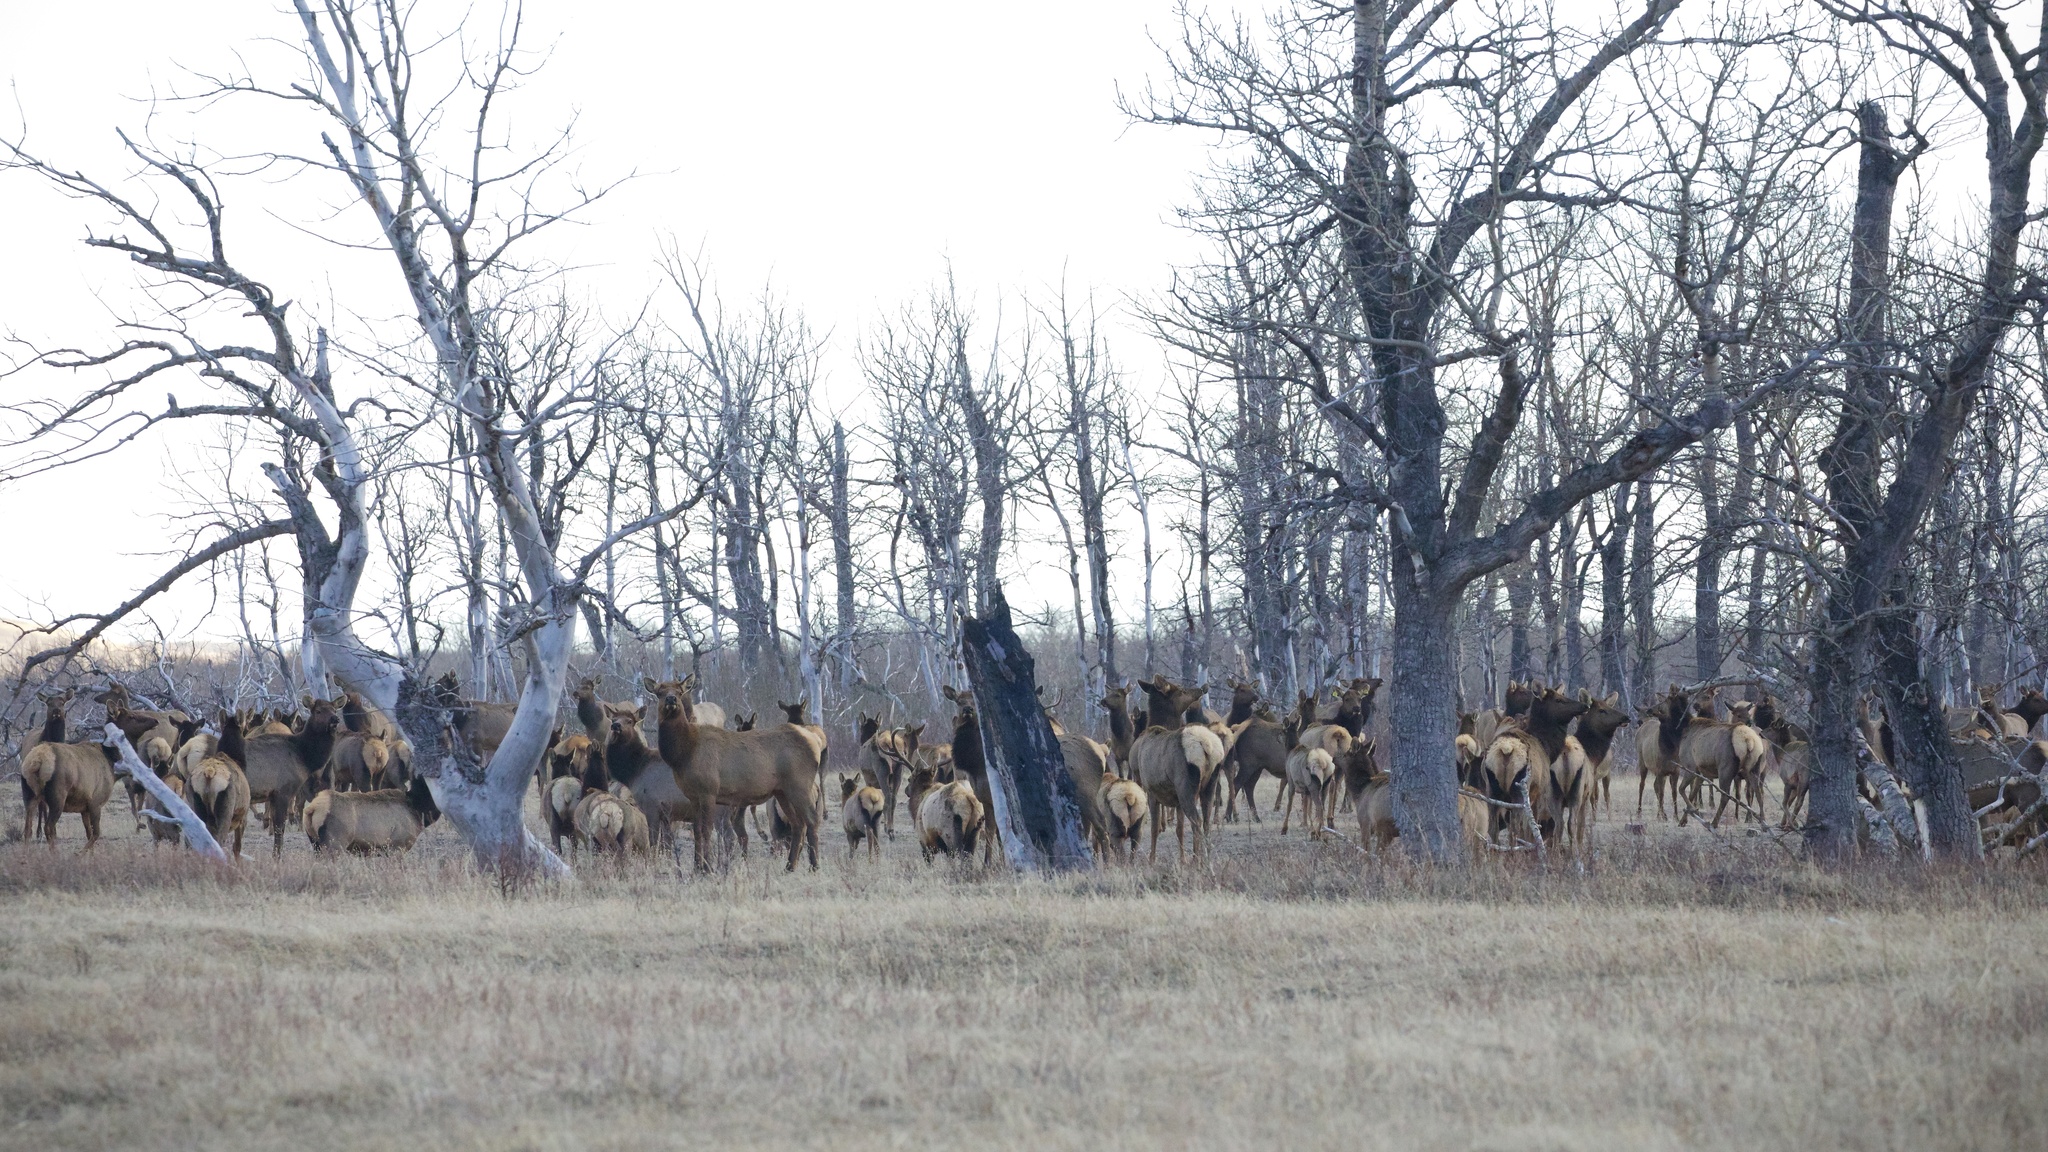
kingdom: Animalia
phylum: Chordata
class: Mammalia
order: Artiodactyla
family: Cervidae
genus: Cervus
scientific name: Cervus elaphus
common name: Red deer
